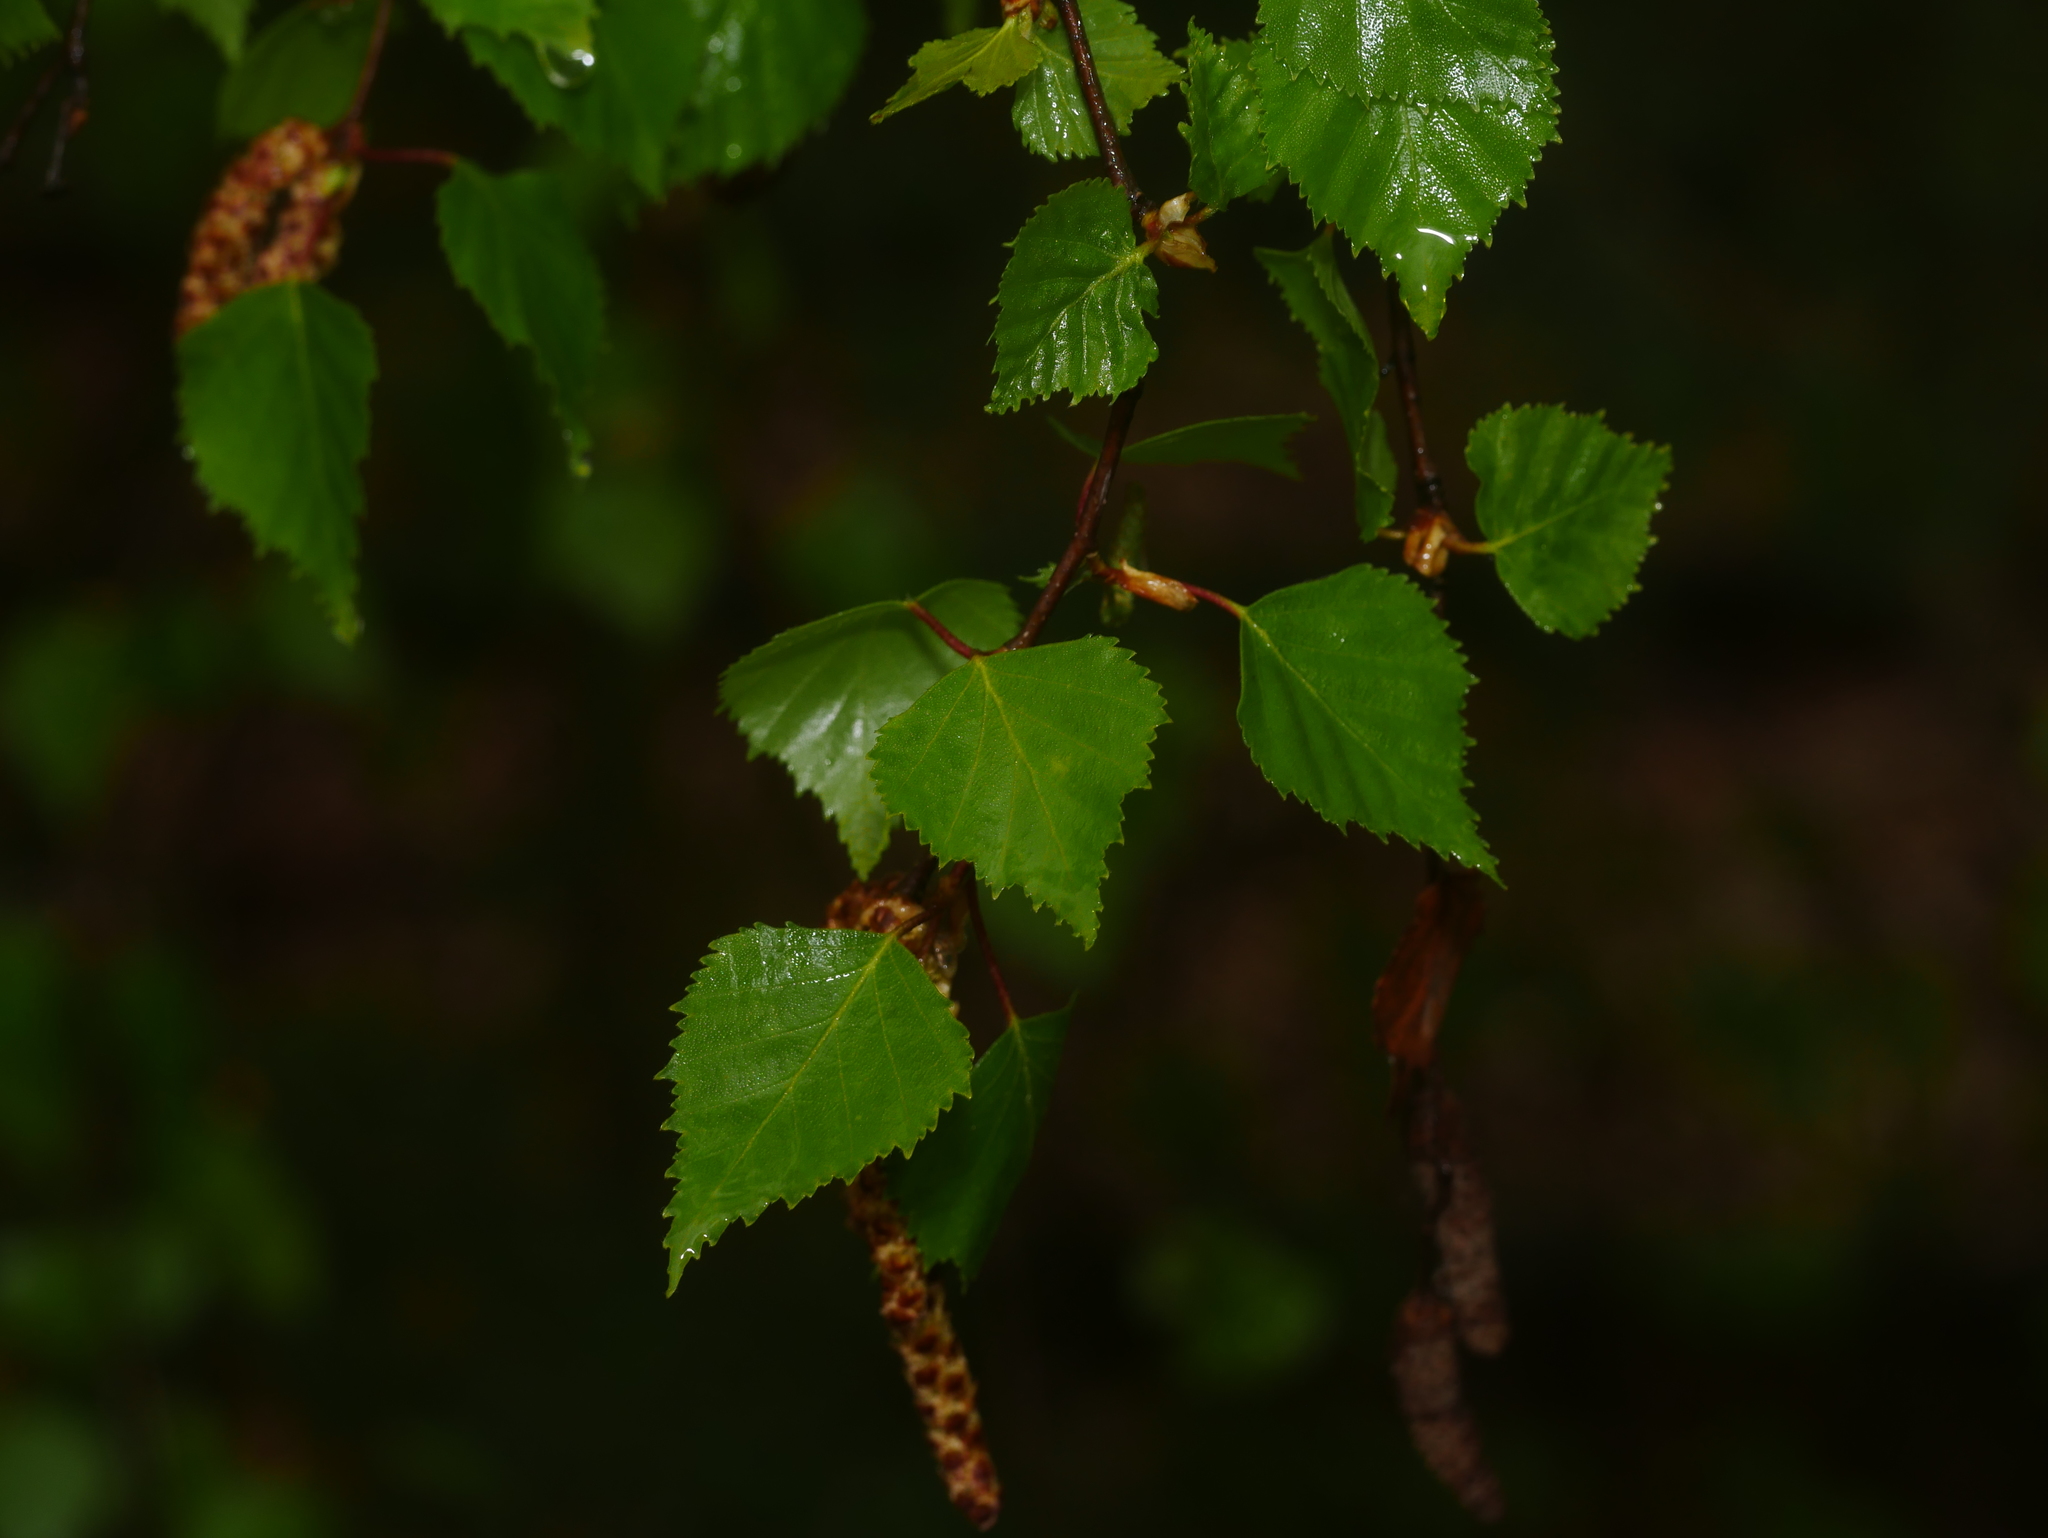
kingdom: Plantae
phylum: Tracheophyta
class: Magnoliopsida
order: Fagales
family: Betulaceae
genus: Betula
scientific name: Betula pendula
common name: Silver birch
